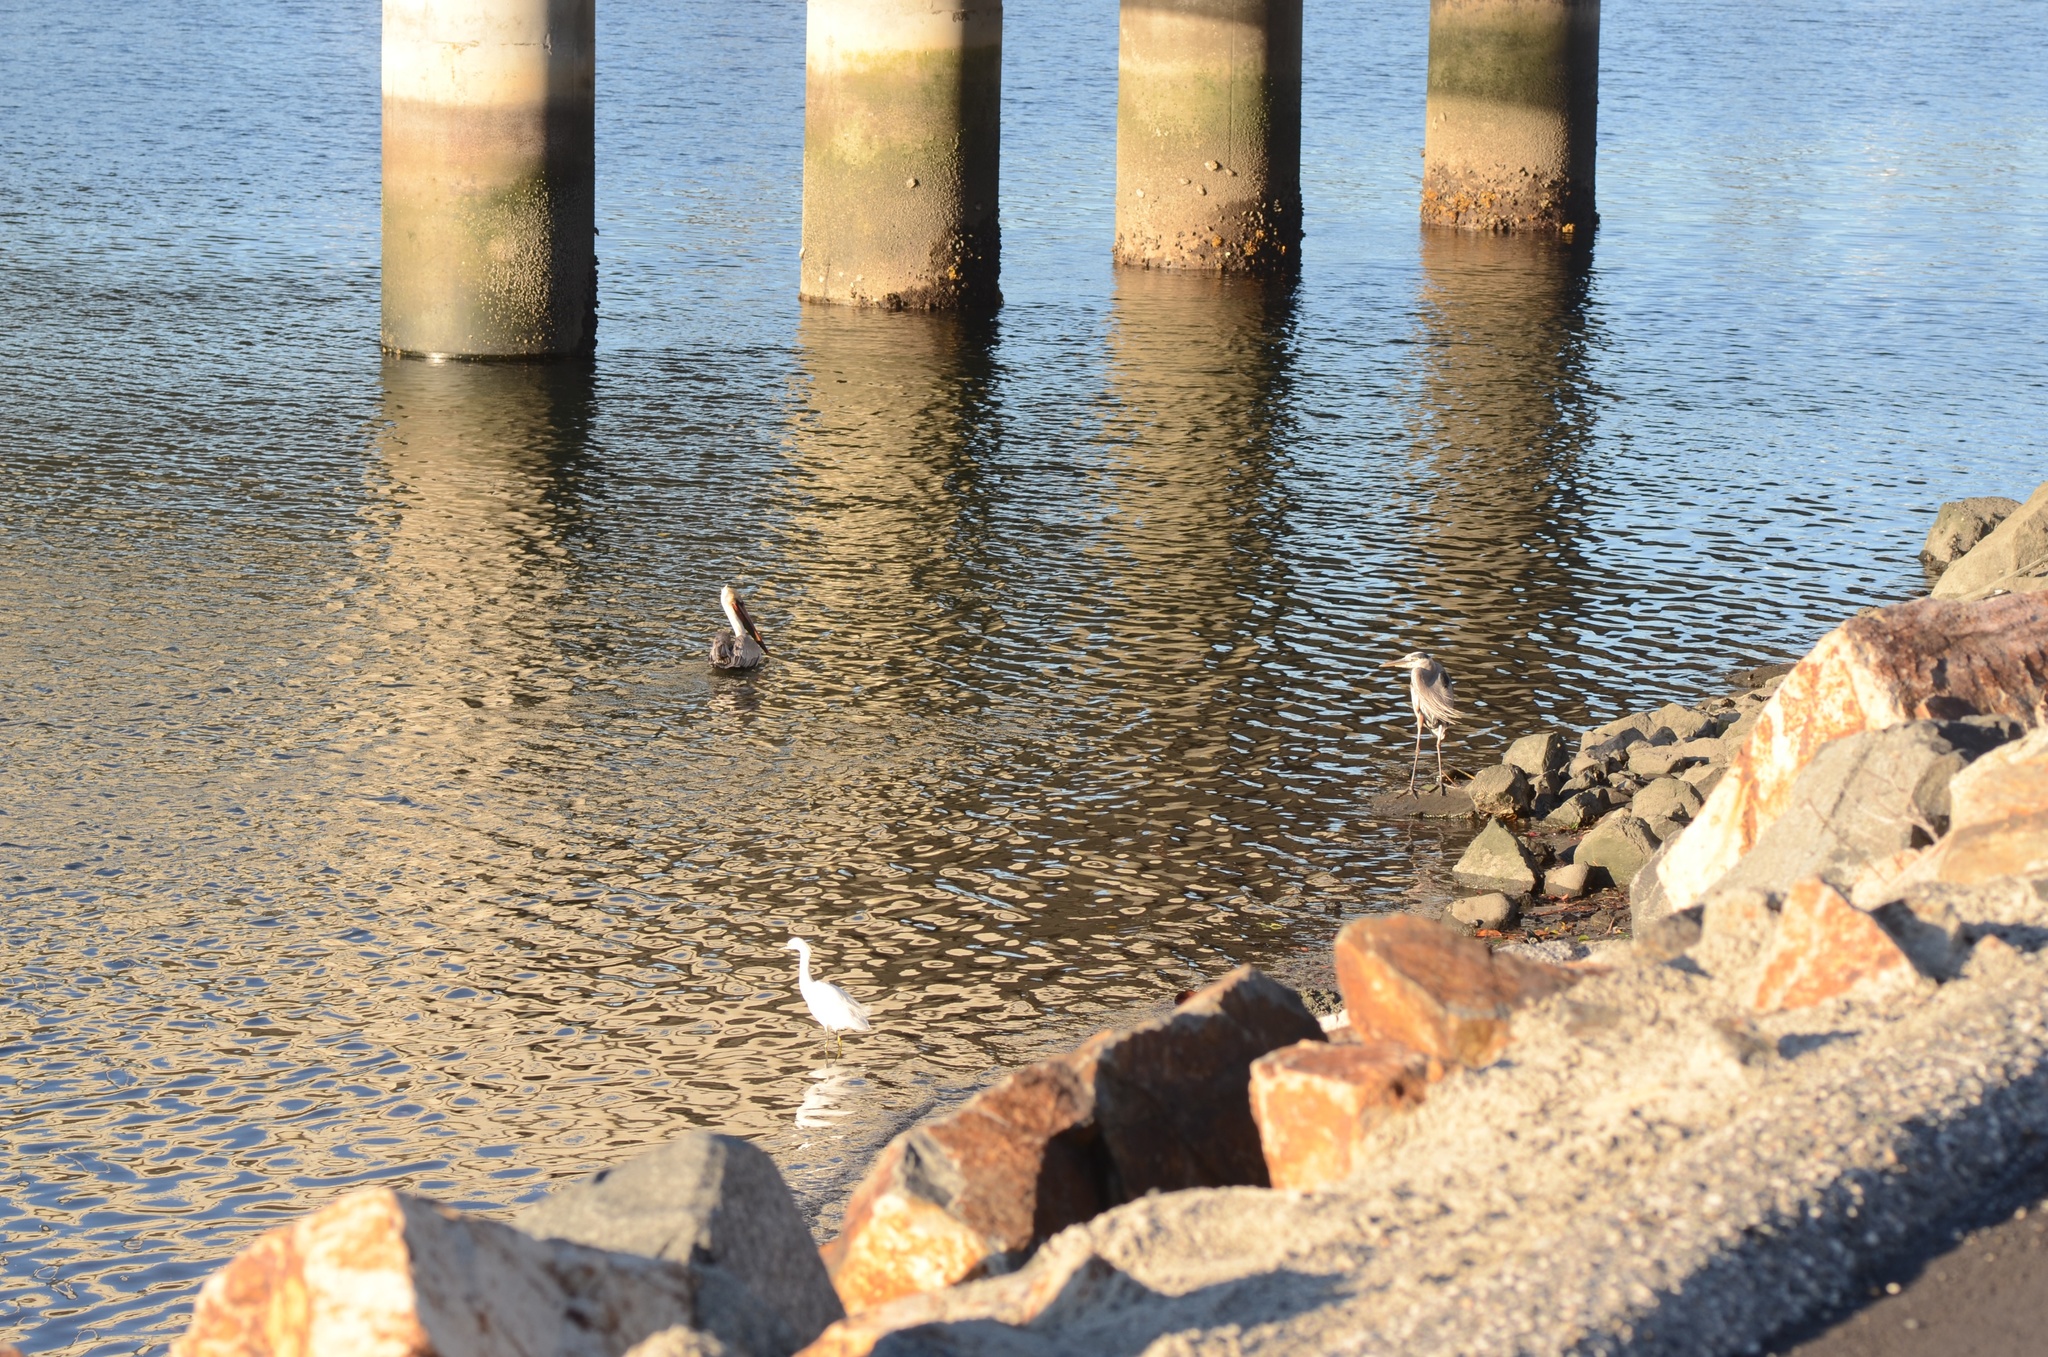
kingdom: Animalia
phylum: Chordata
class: Aves
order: Pelecaniformes
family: Ardeidae
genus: Ardea
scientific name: Ardea herodias
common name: Great blue heron
